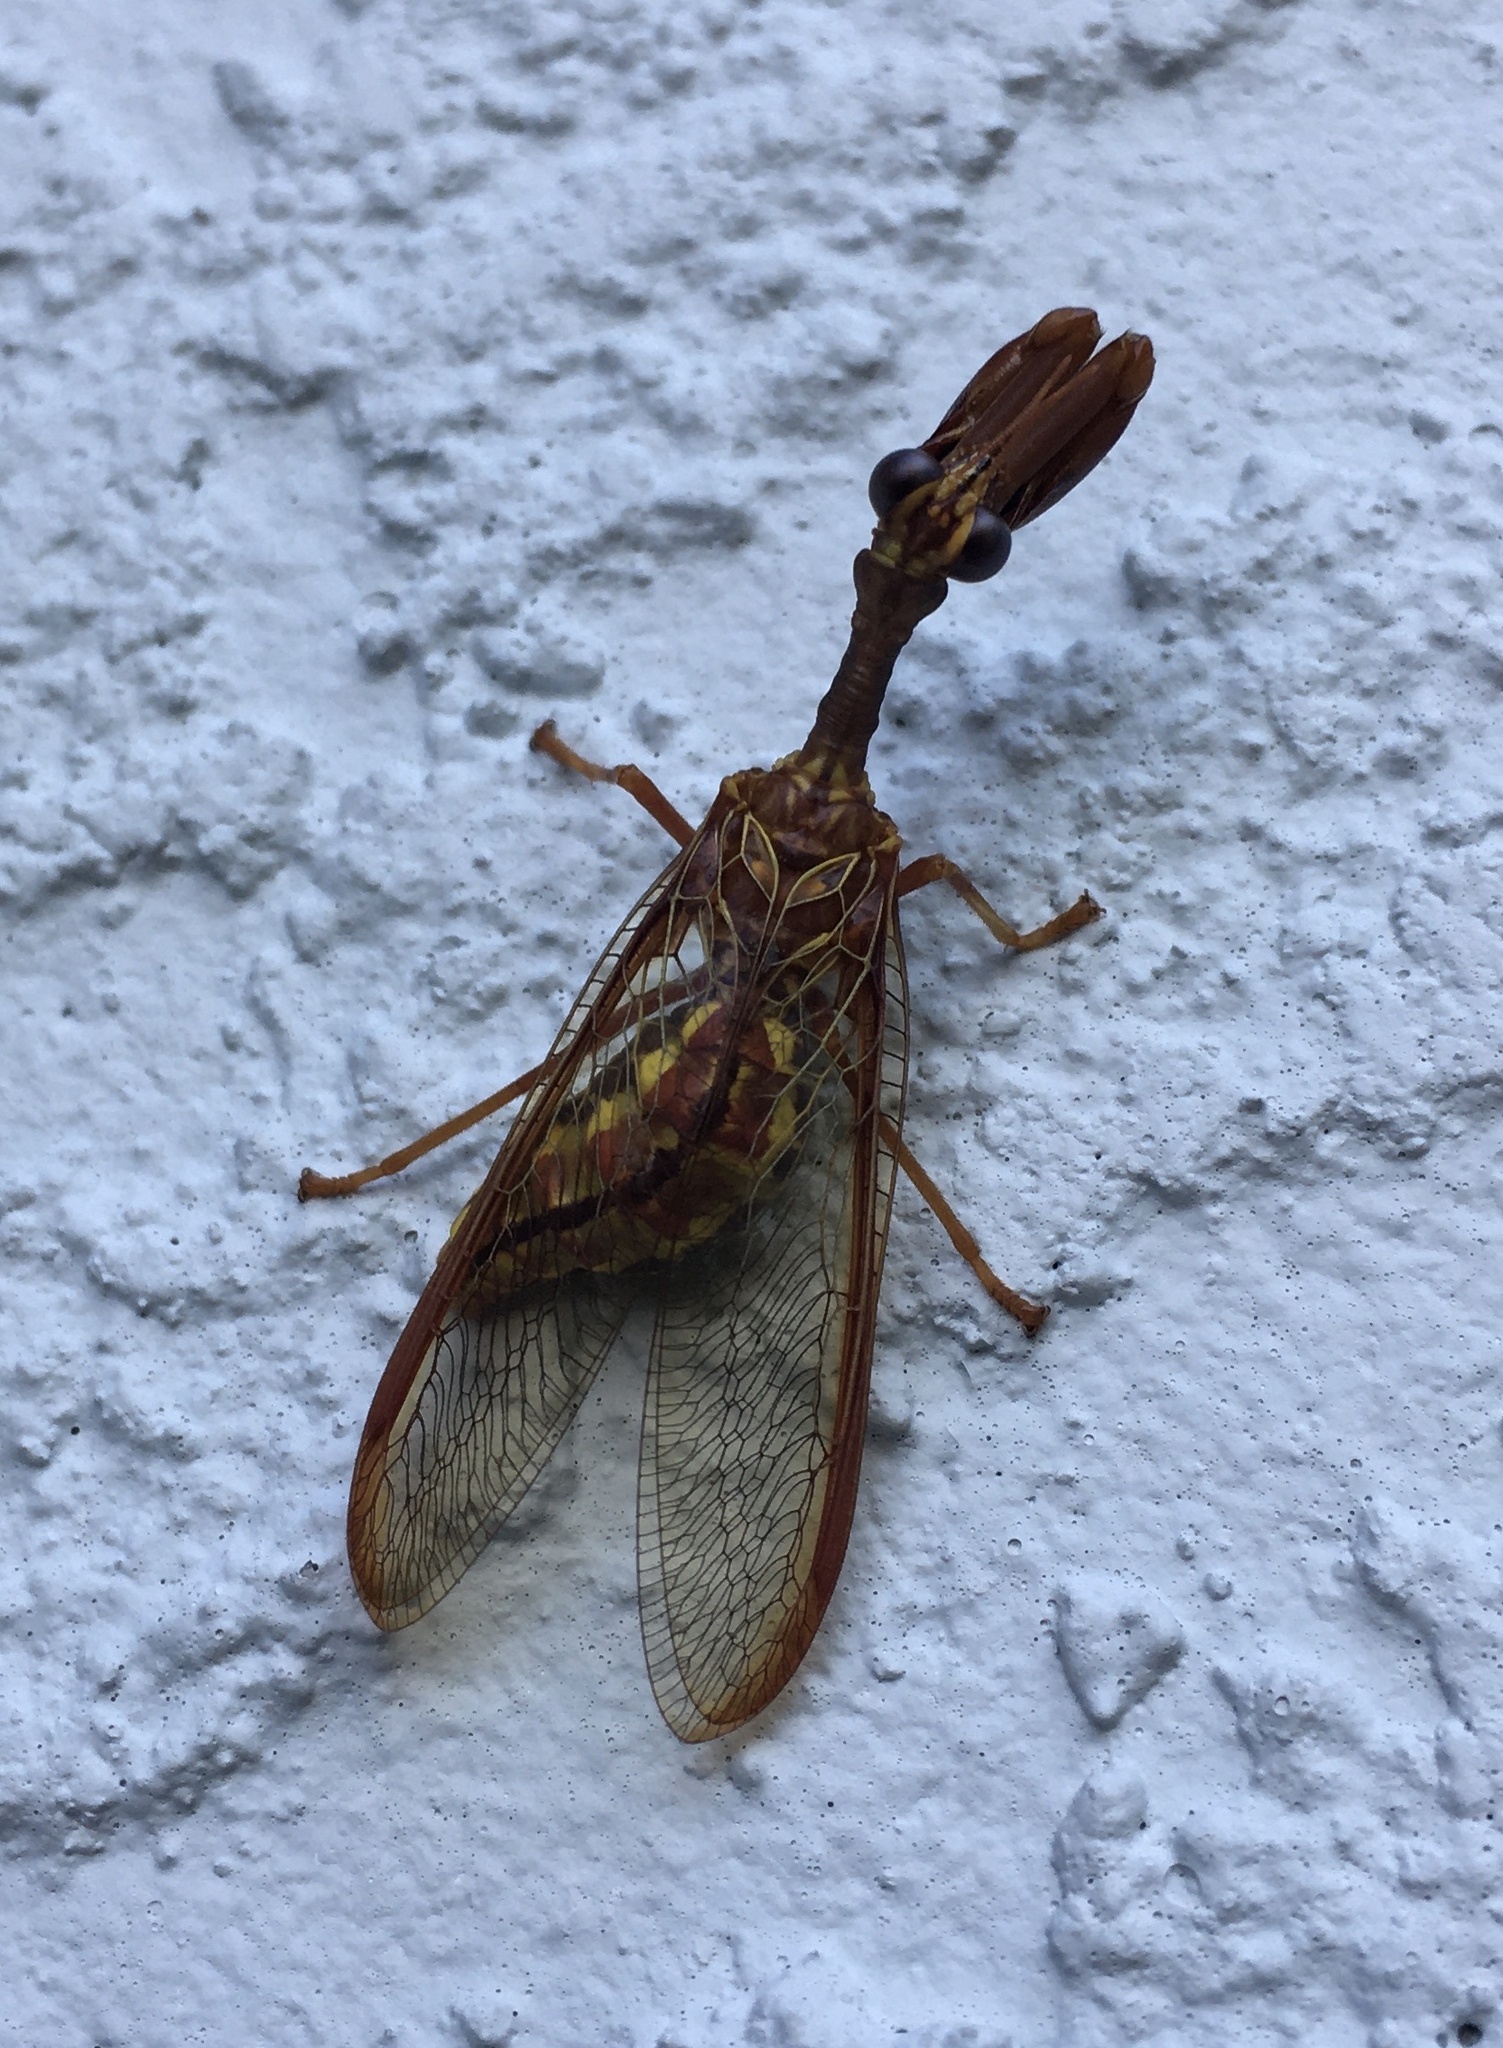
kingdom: Animalia
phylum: Arthropoda
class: Insecta
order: Neuroptera
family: Mantispidae
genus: Dicromantispa
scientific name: Dicromantispa sayi
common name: Say's mantidfly
